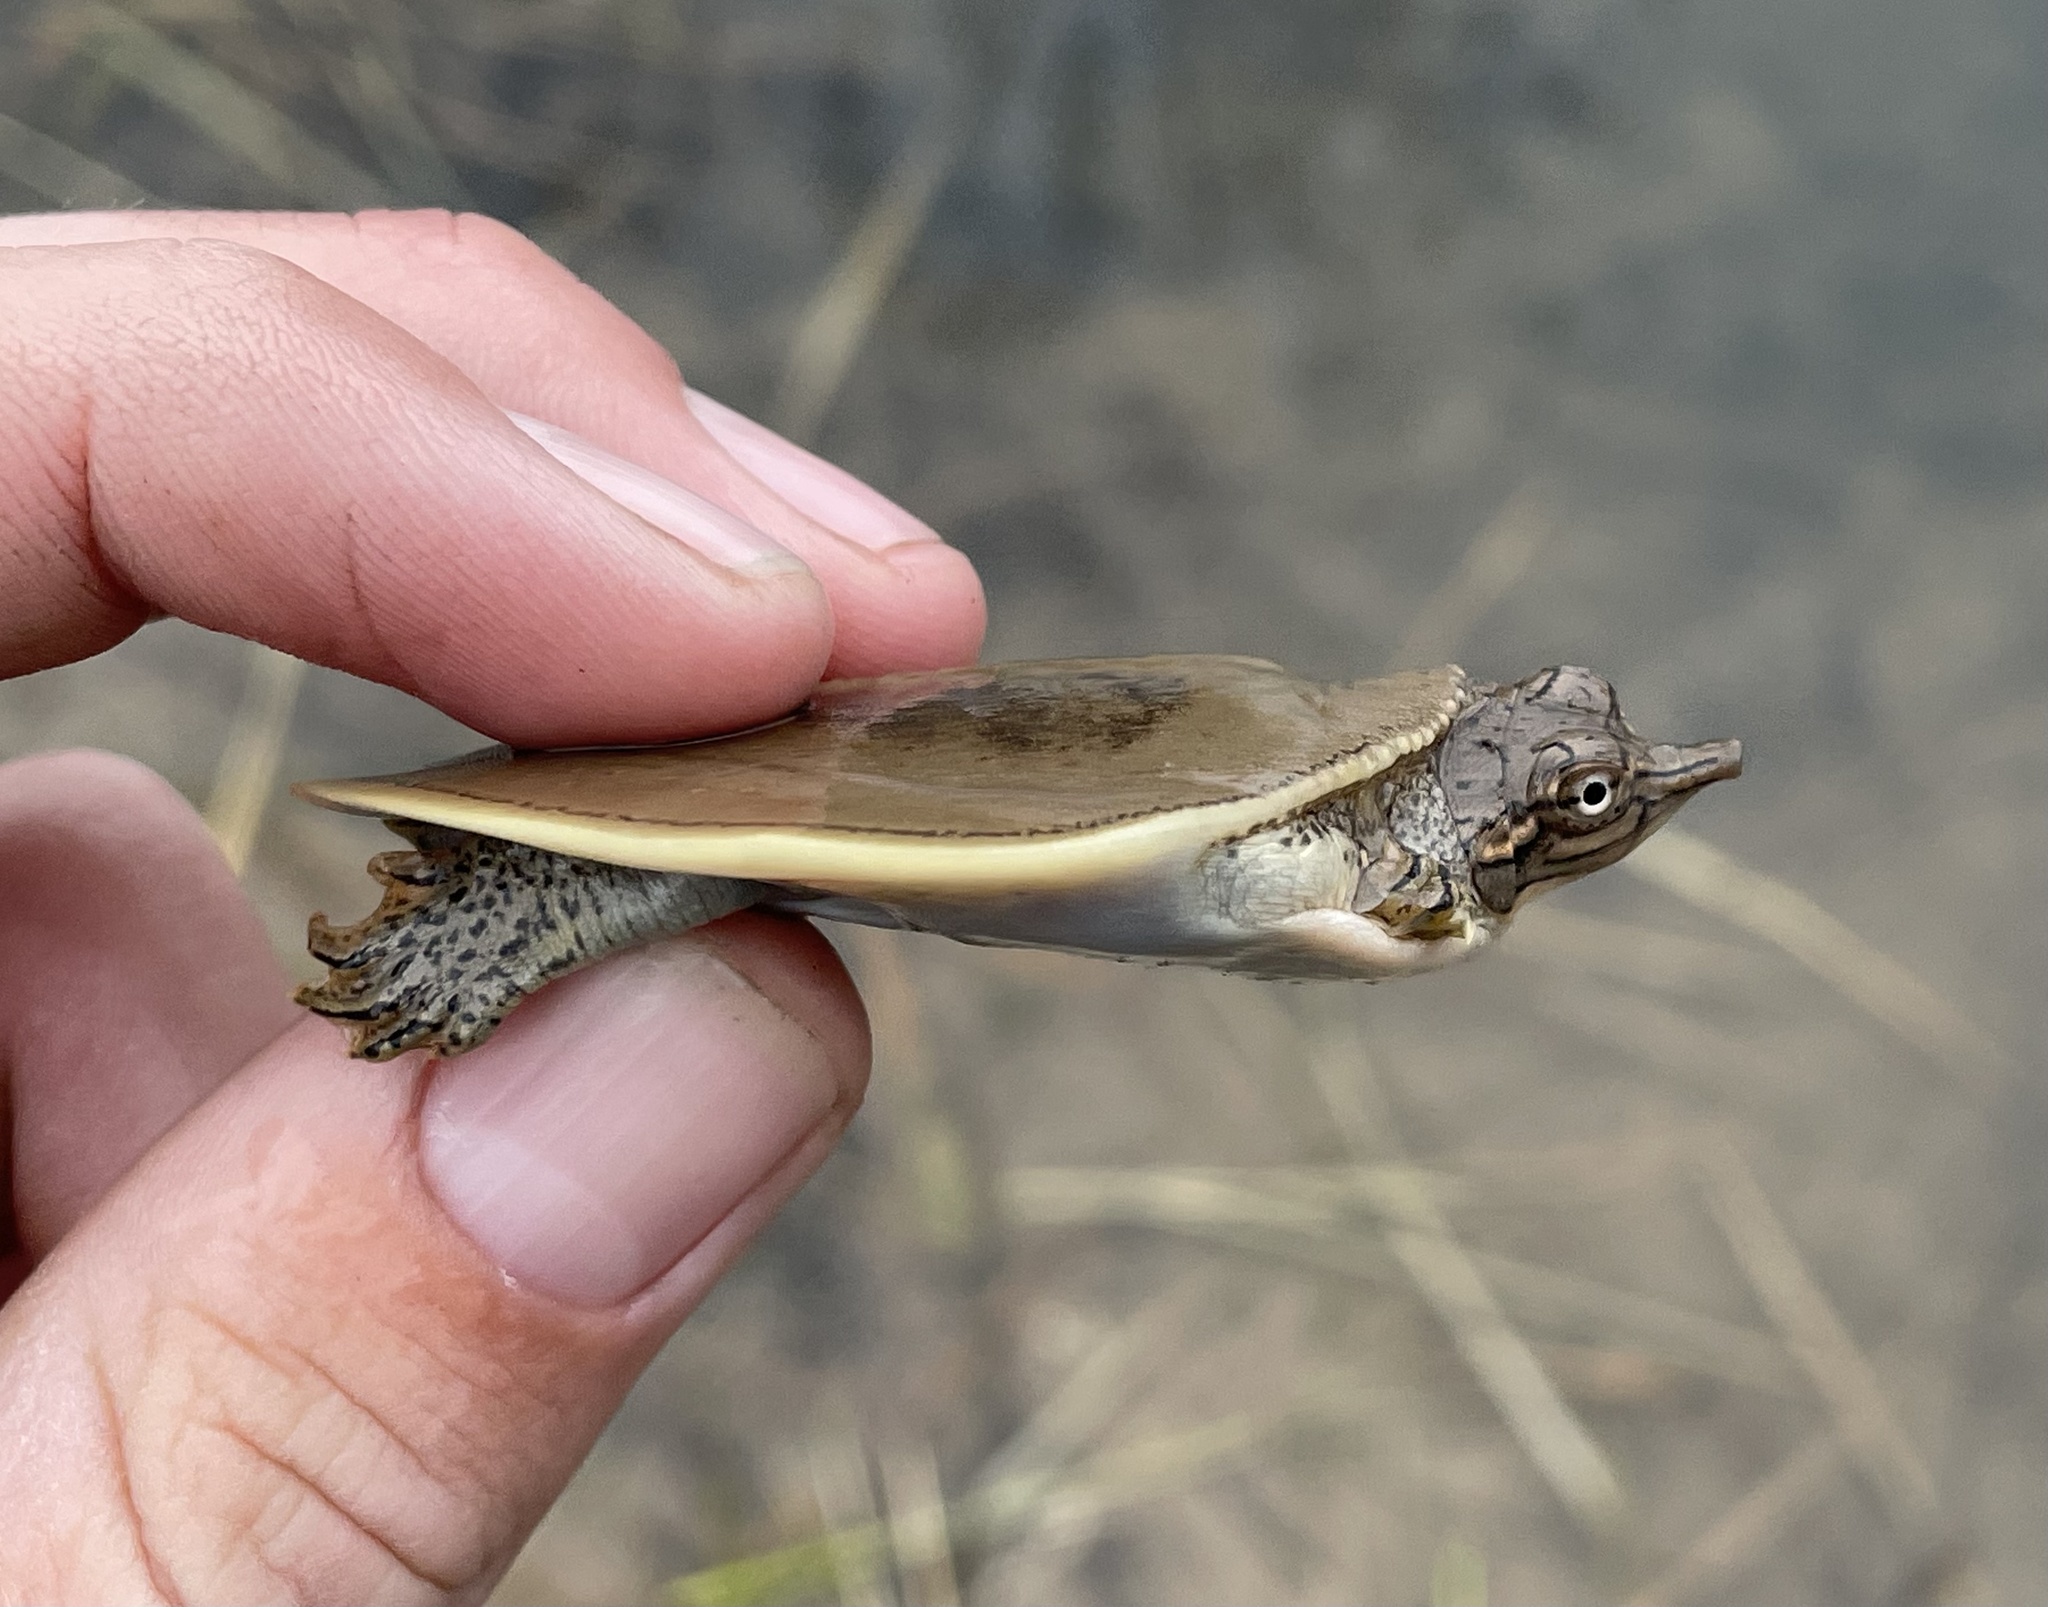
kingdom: Animalia
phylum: Chordata
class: Testudines
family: Trionychidae
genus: Apalone
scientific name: Apalone spinifera
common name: Spiny softshell turtle
